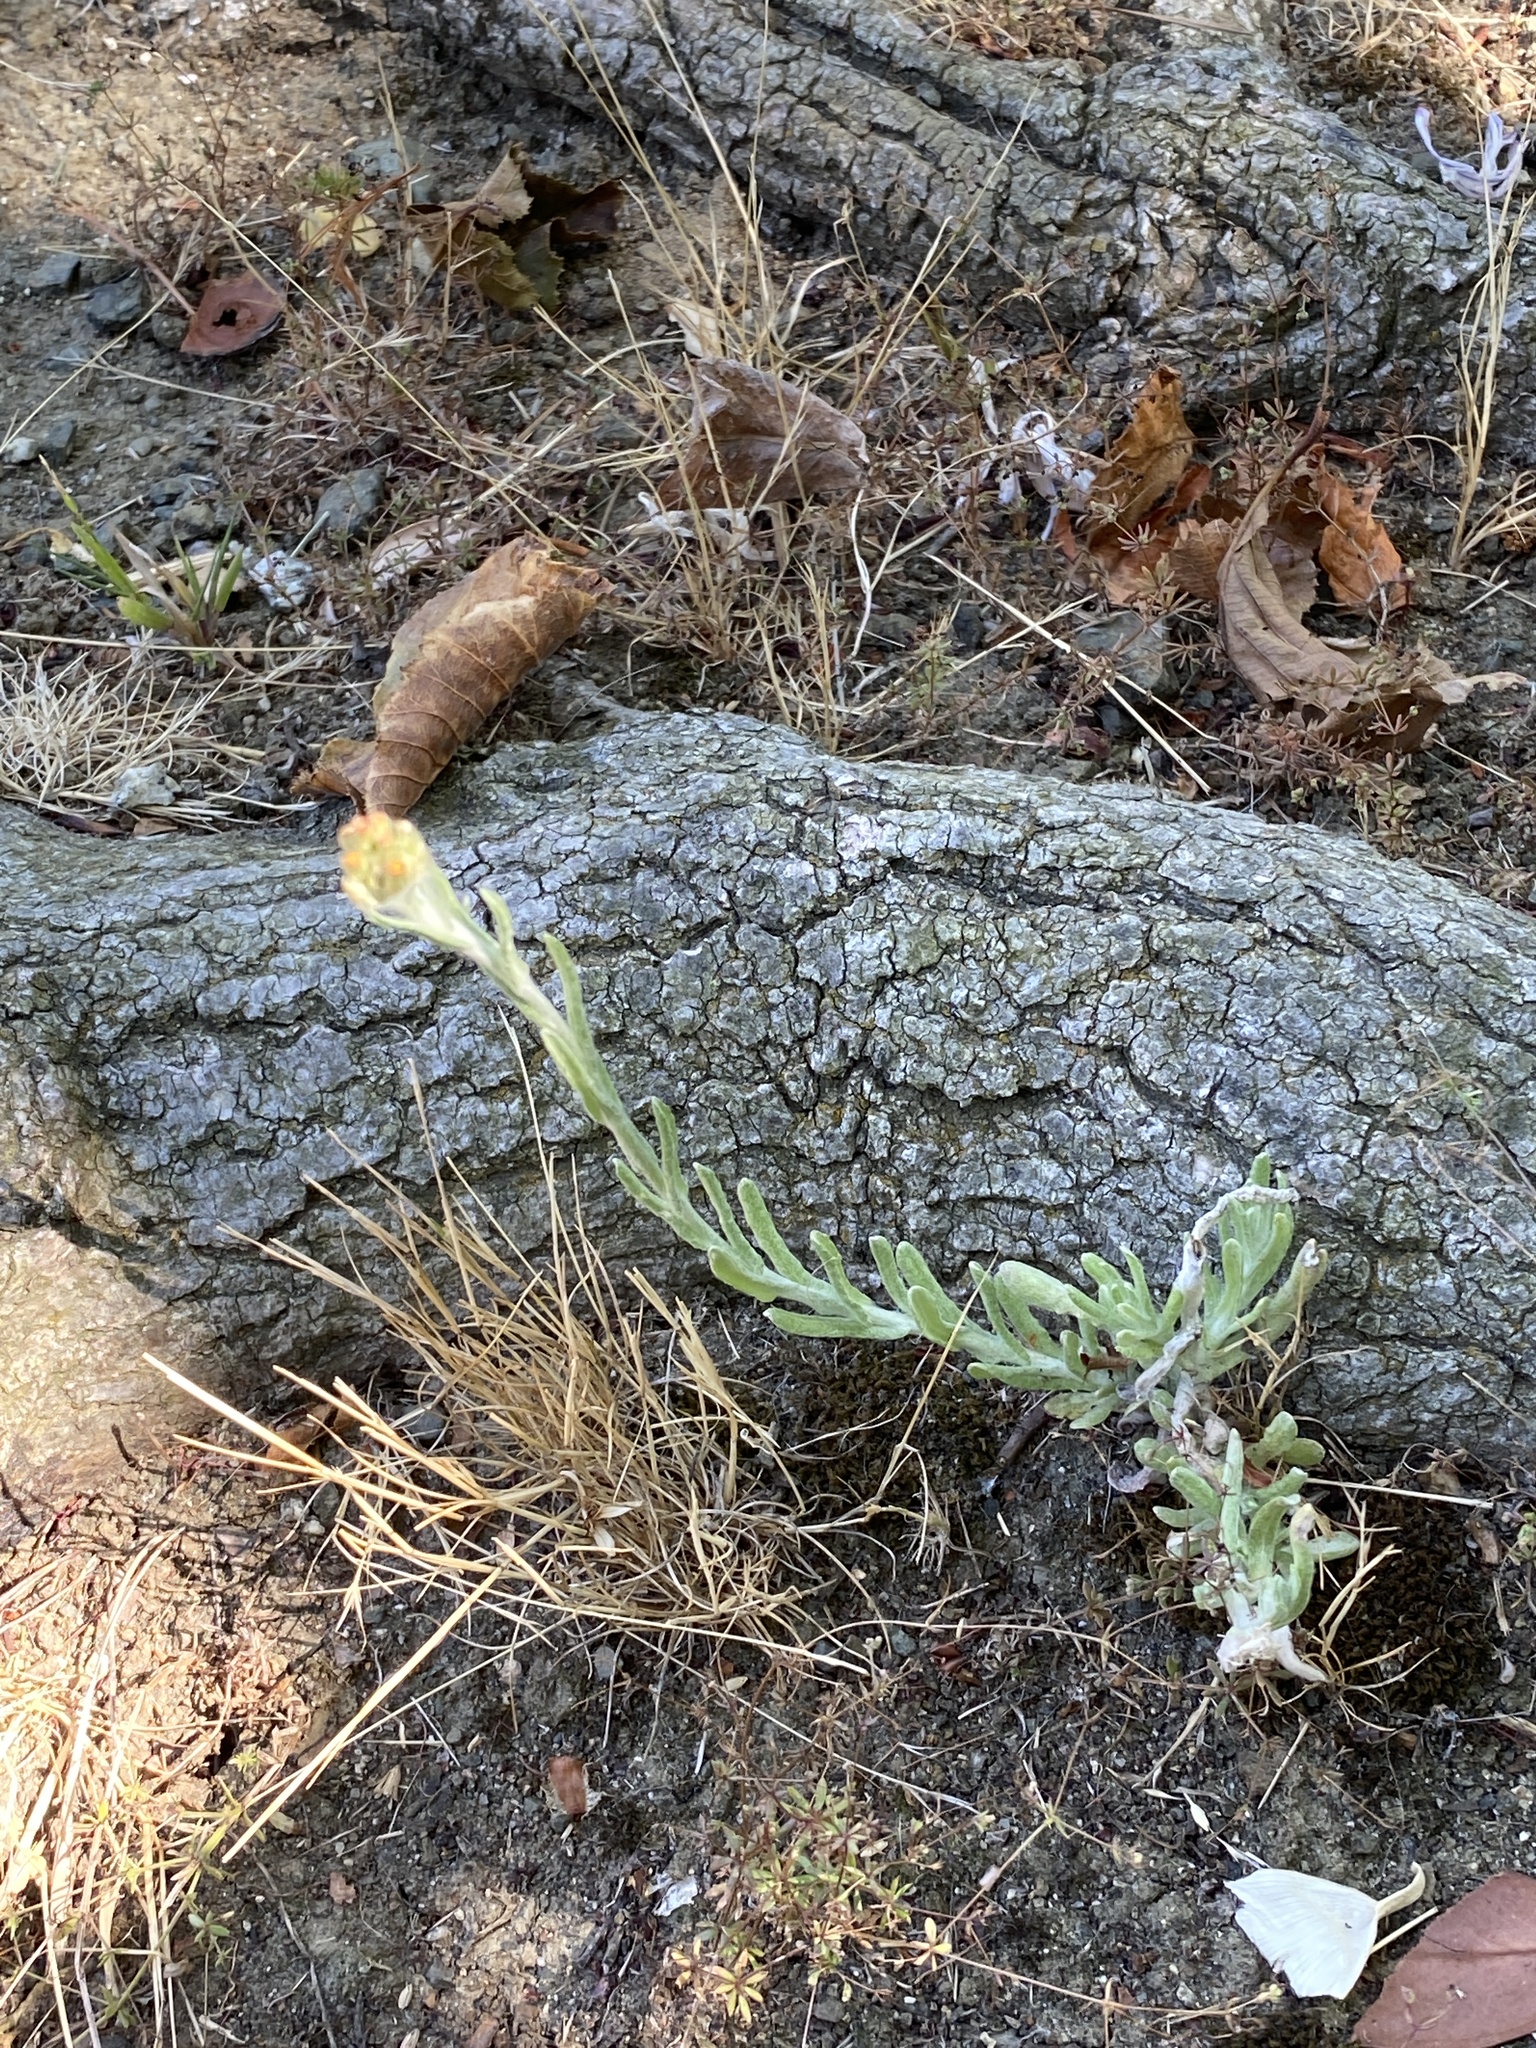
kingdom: Plantae
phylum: Tracheophyta
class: Magnoliopsida
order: Asterales
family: Asteraceae
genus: Helichrysum
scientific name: Helichrysum luteoalbum
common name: Daisy
